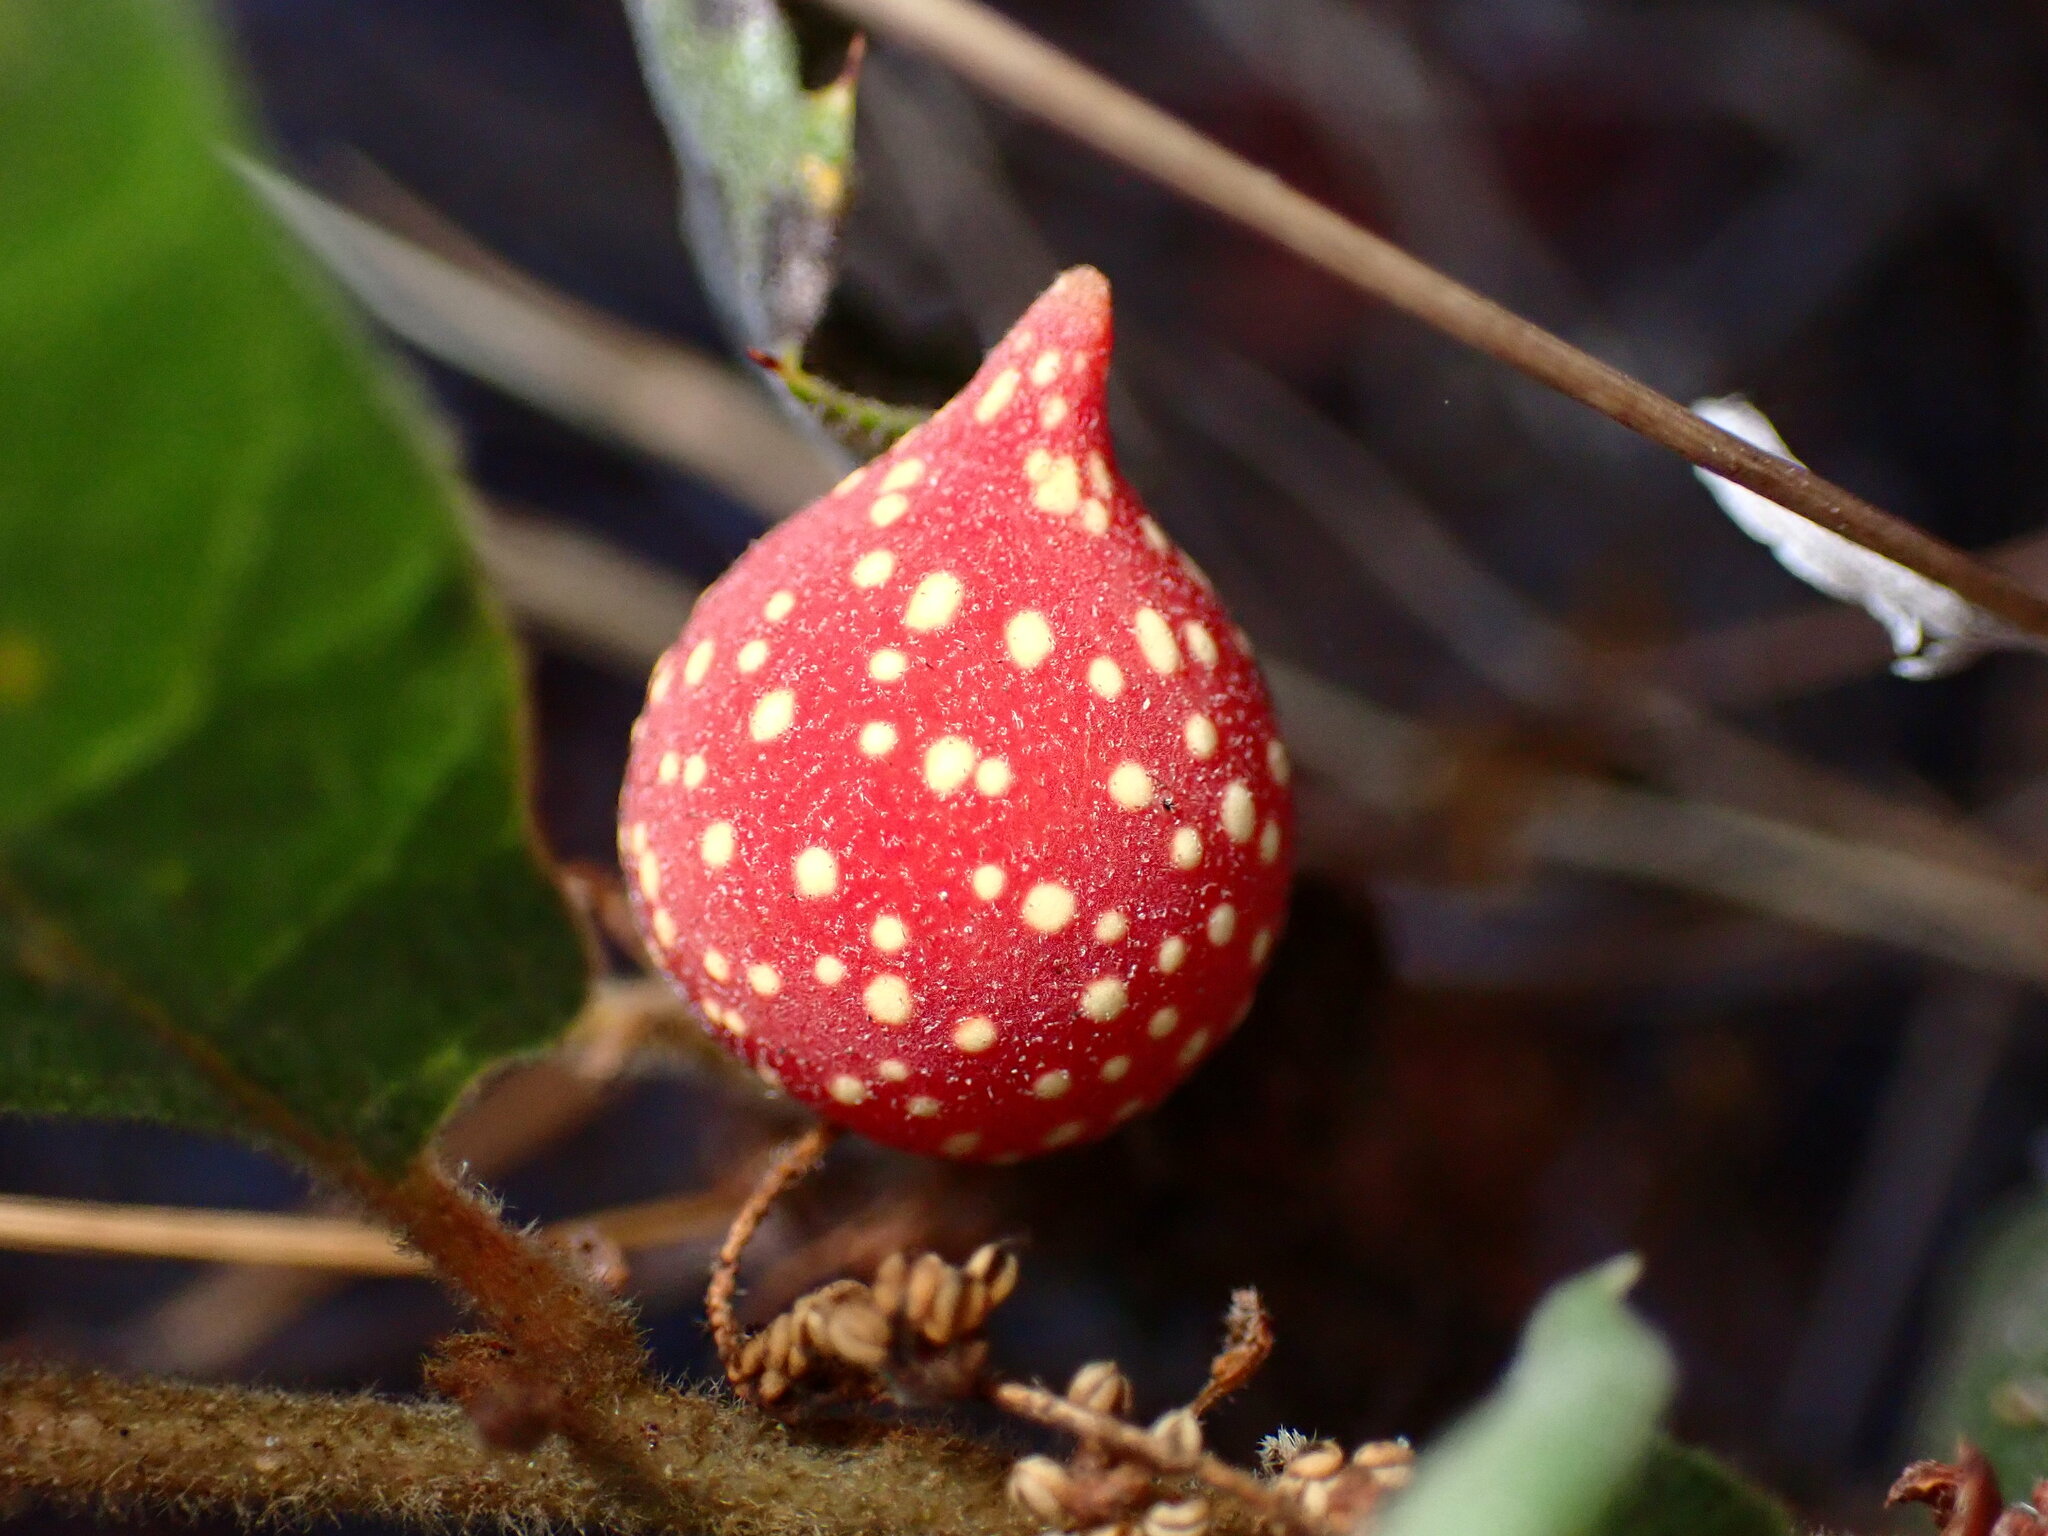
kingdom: Animalia
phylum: Arthropoda
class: Insecta
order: Hymenoptera
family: Cynipidae
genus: Burnettweldia
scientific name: Burnettweldia
